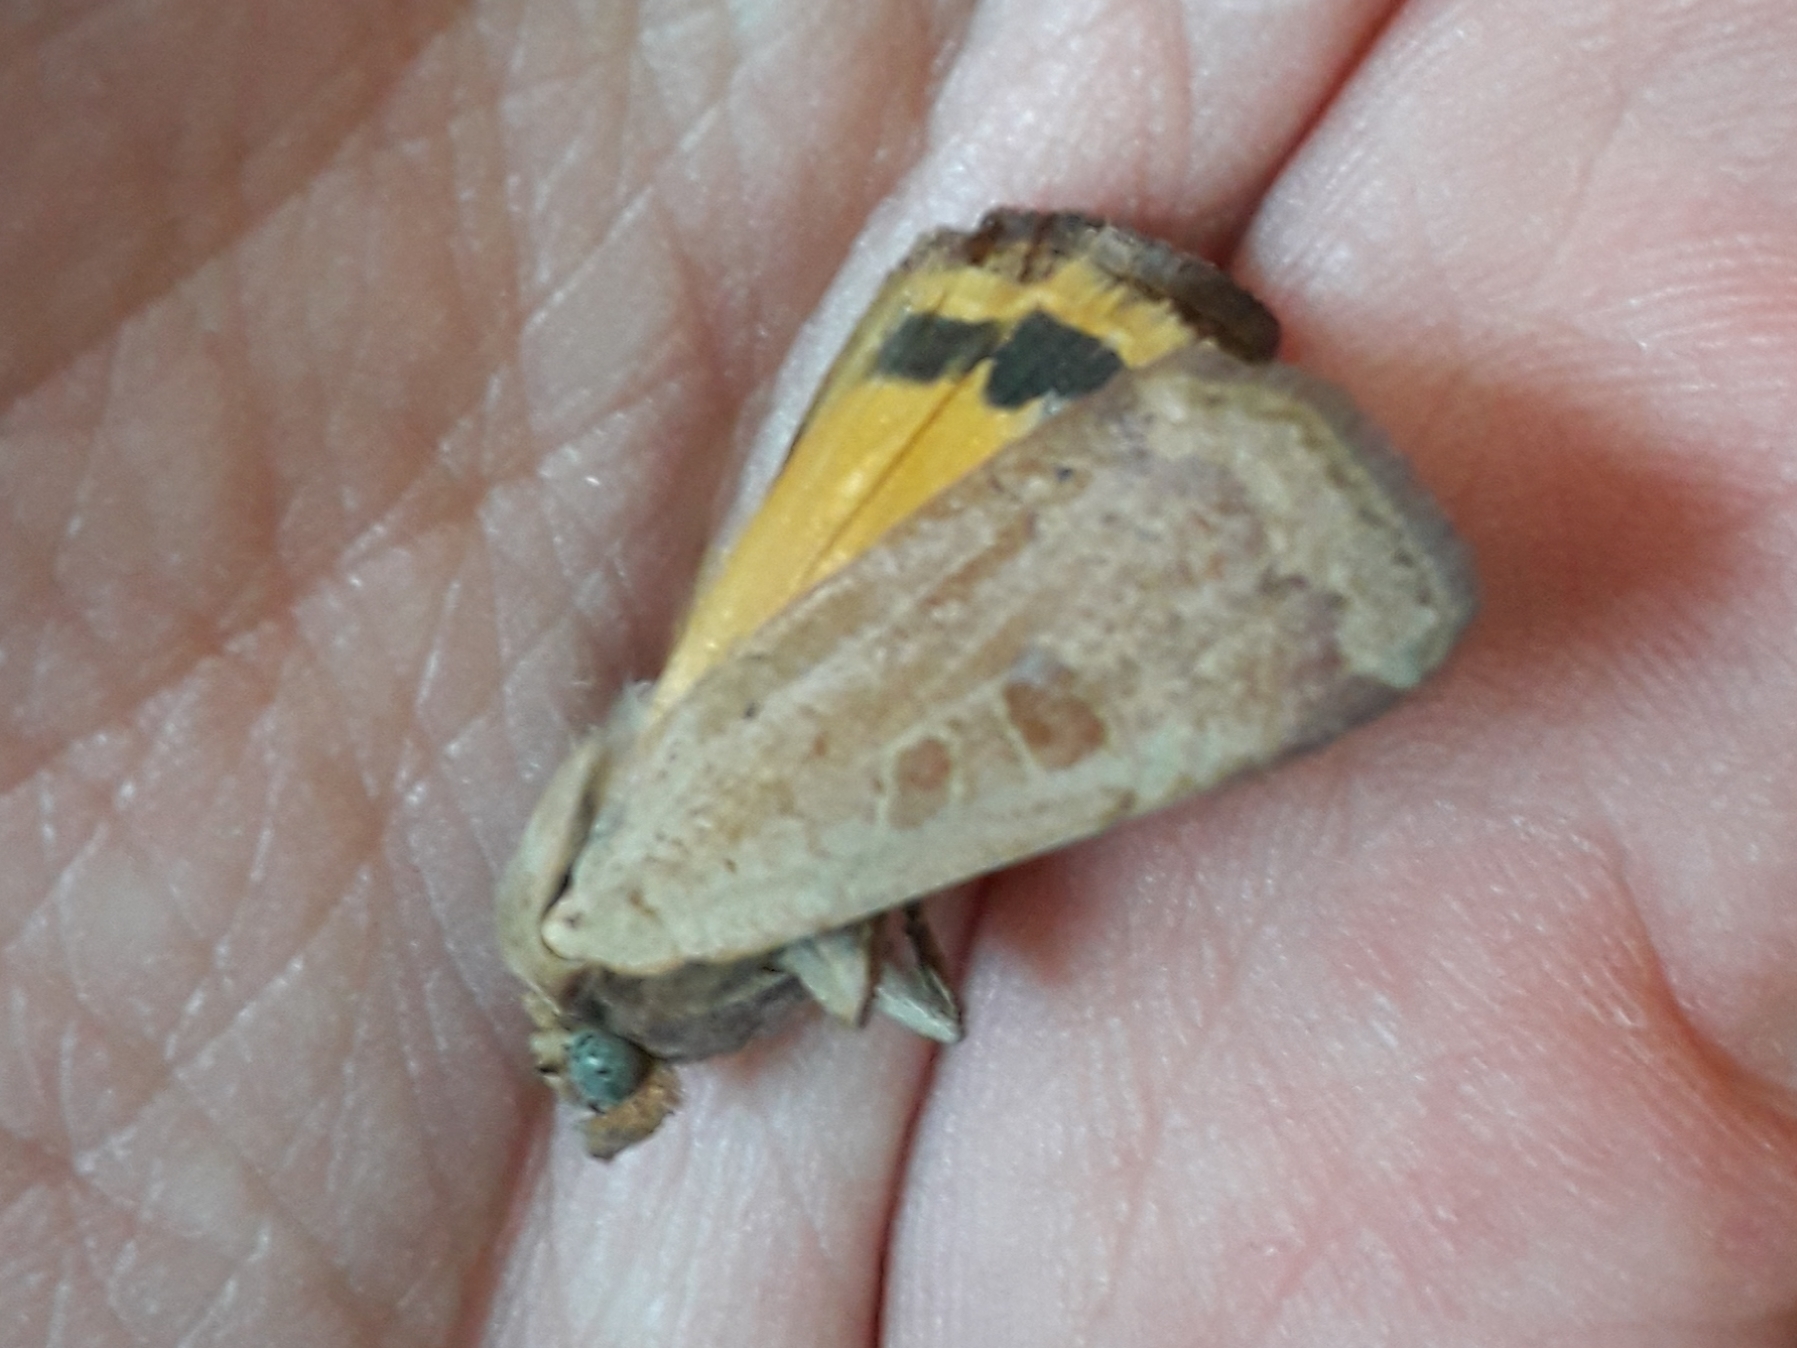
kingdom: Animalia
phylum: Arthropoda
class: Insecta
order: Lepidoptera
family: Noctuidae
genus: Noctua
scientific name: Noctua comes
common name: Lesser yellow underwing
